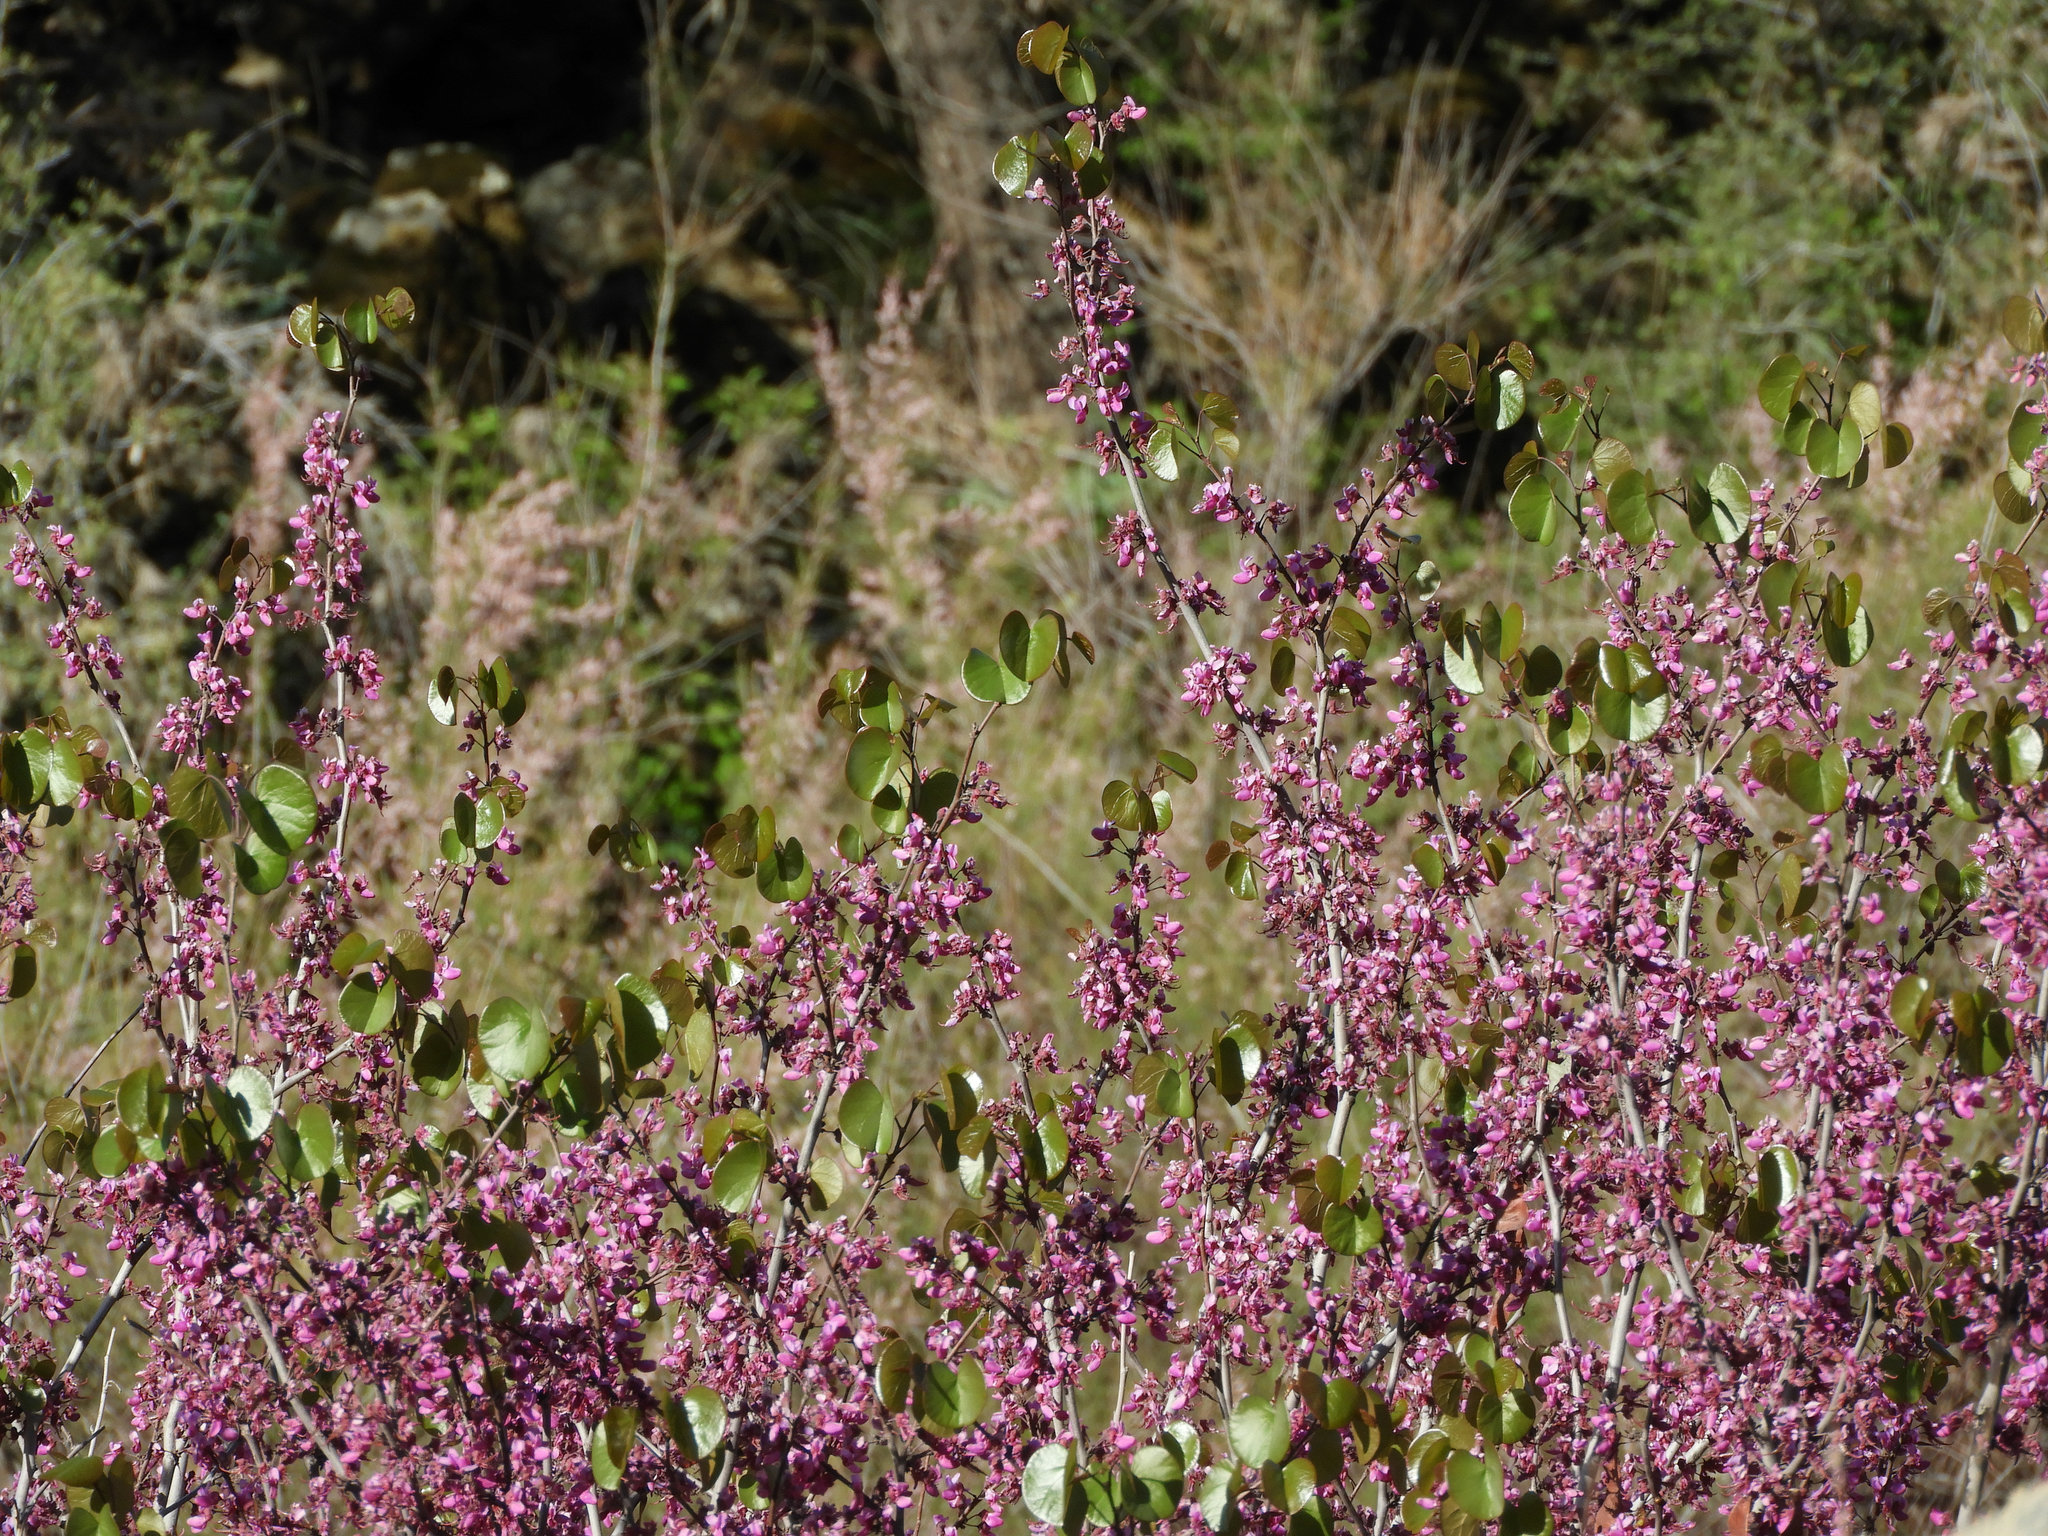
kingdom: Plantae
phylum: Tracheophyta
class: Magnoliopsida
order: Fabales
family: Fabaceae
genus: Cercis
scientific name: Cercis occidentalis
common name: California redbud
